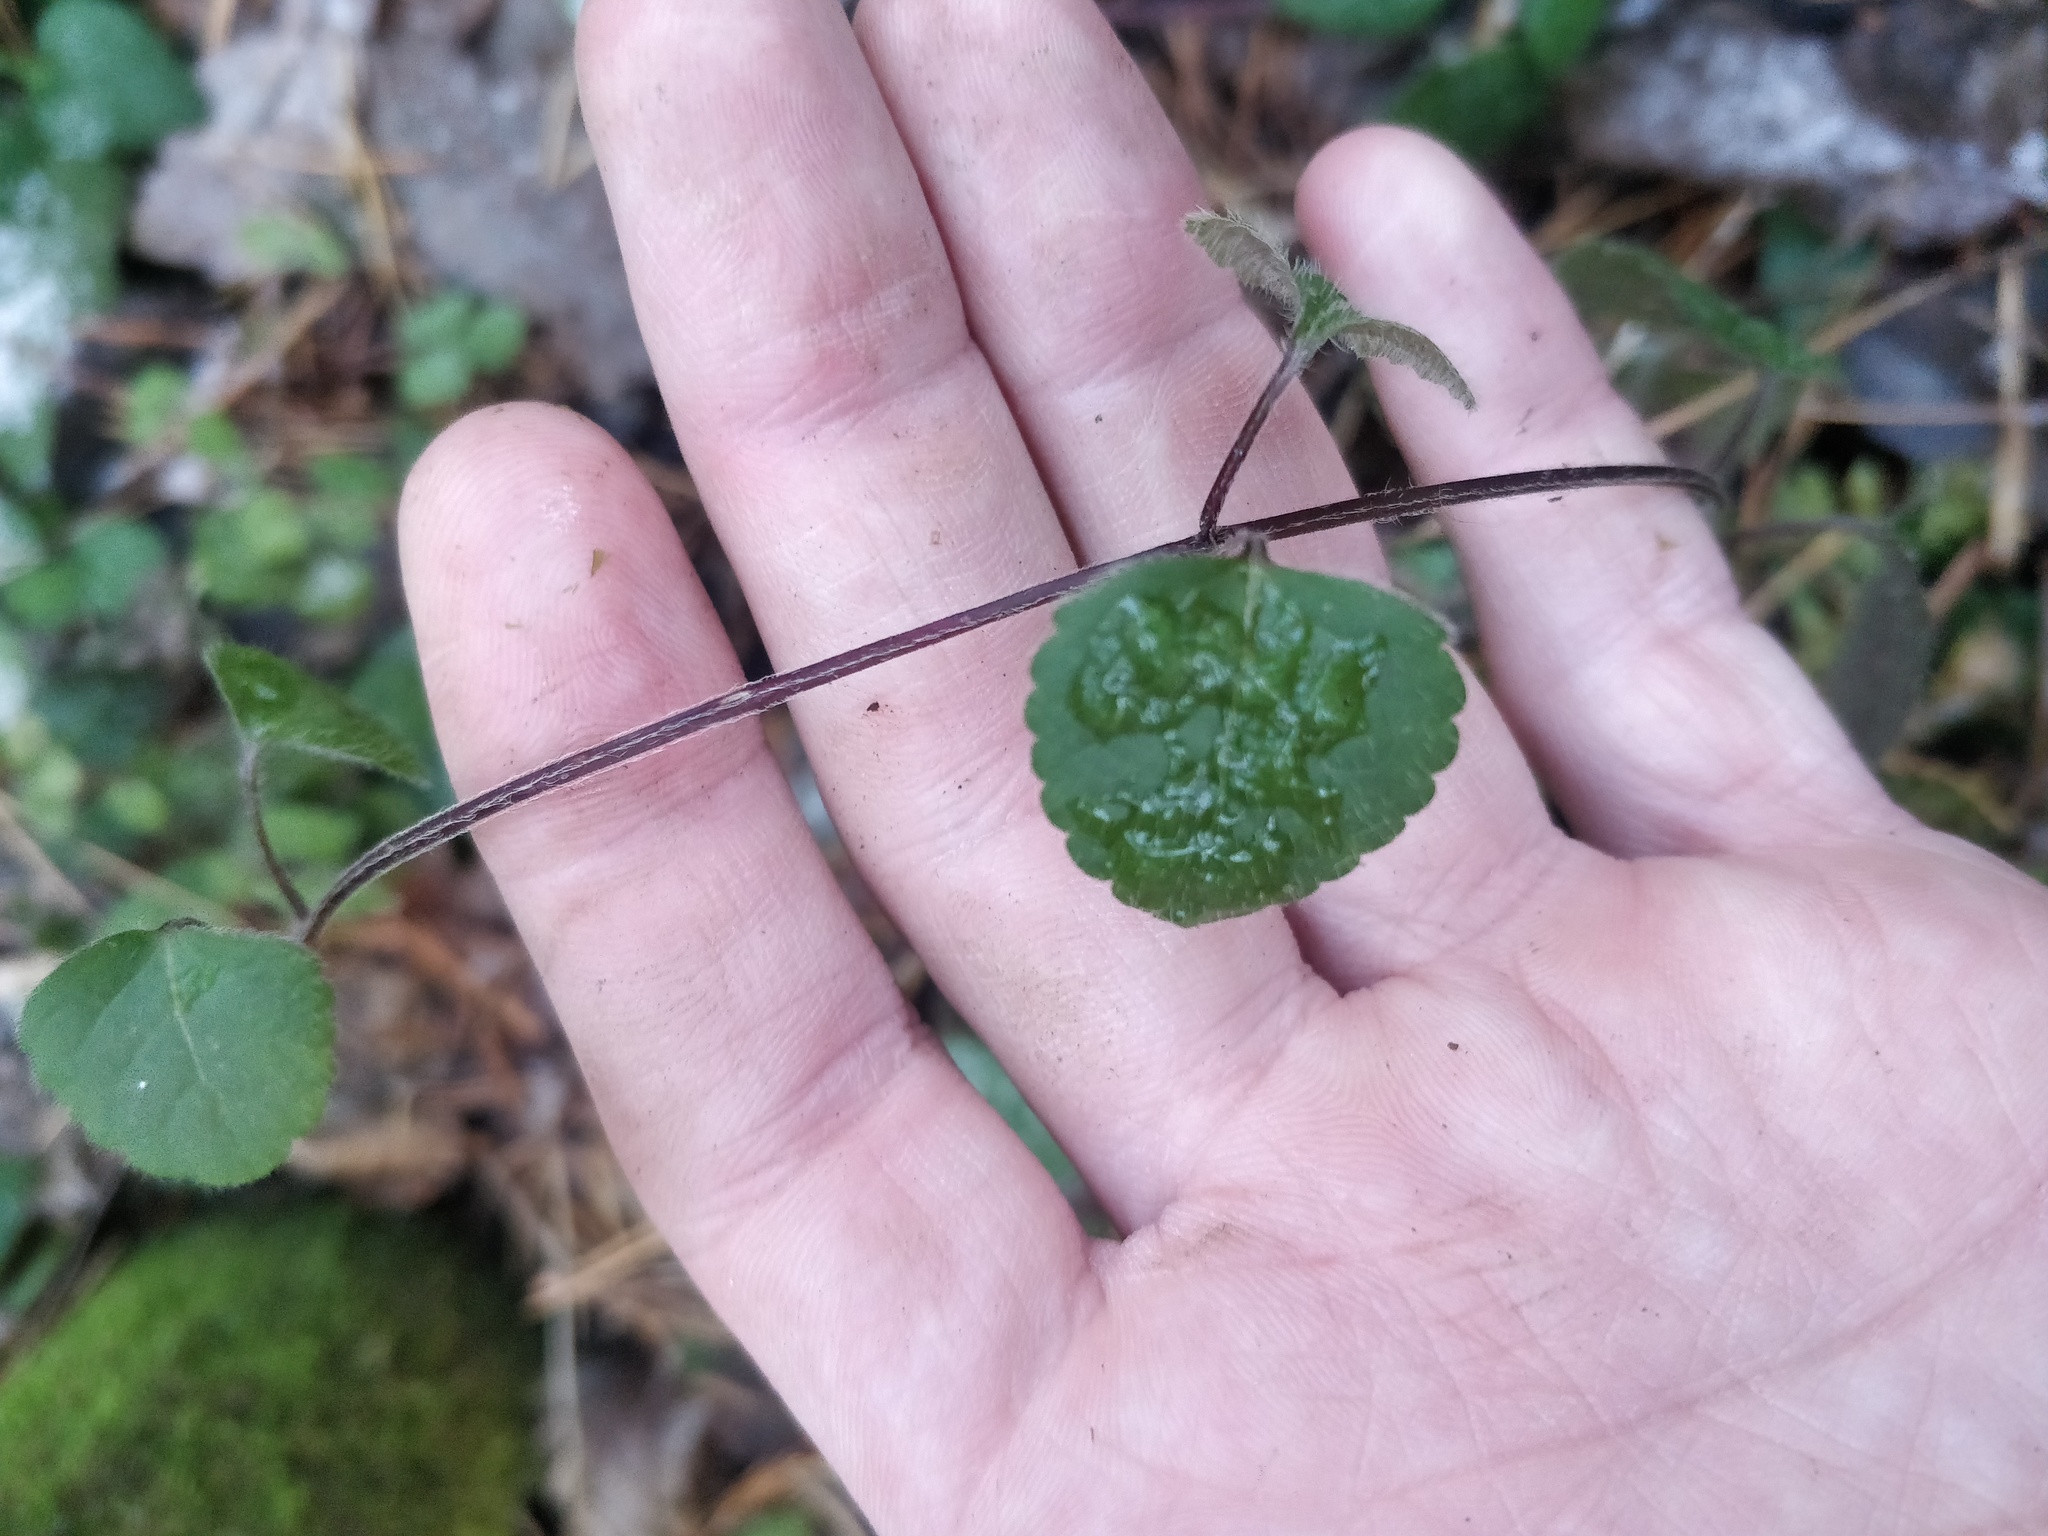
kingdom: Plantae
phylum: Tracheophyta
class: Magnoliopsida
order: Lamiales
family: Lamiaceae
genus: Lamium
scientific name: Lamium galeobdolon
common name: Yellow archangel
